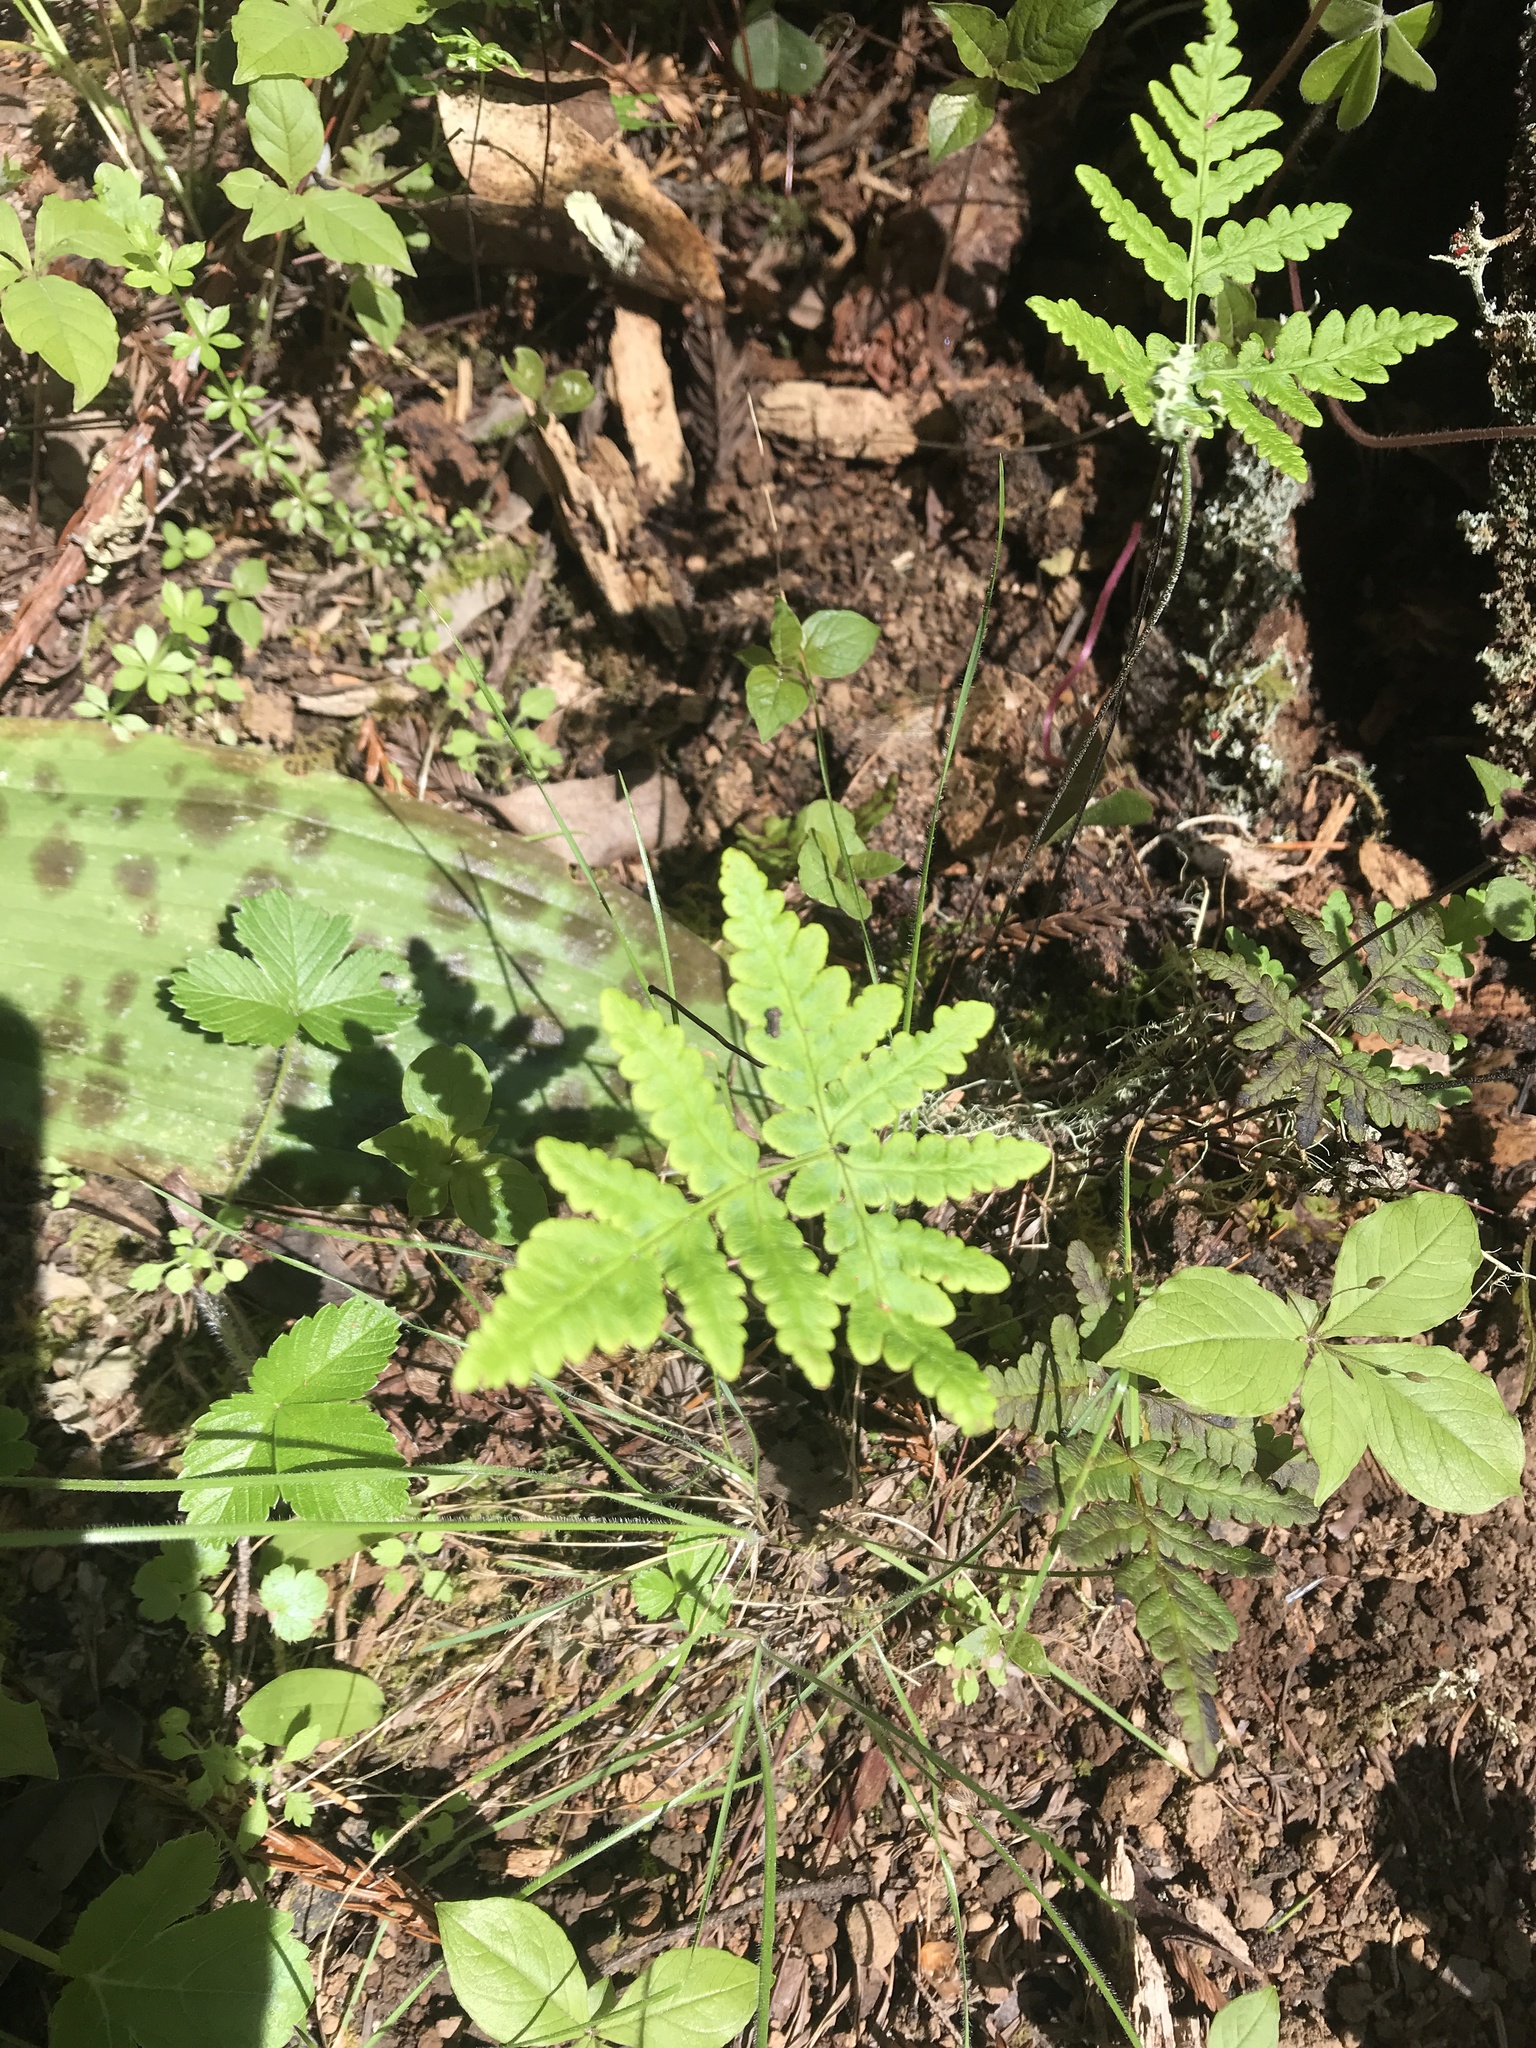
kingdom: Plantae
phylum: Tracheophyta
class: Polypodiopsida
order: Polypodiales
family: Pteridaceae
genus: Pentagramma
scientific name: Pentagramma triangularis
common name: Gold fern
